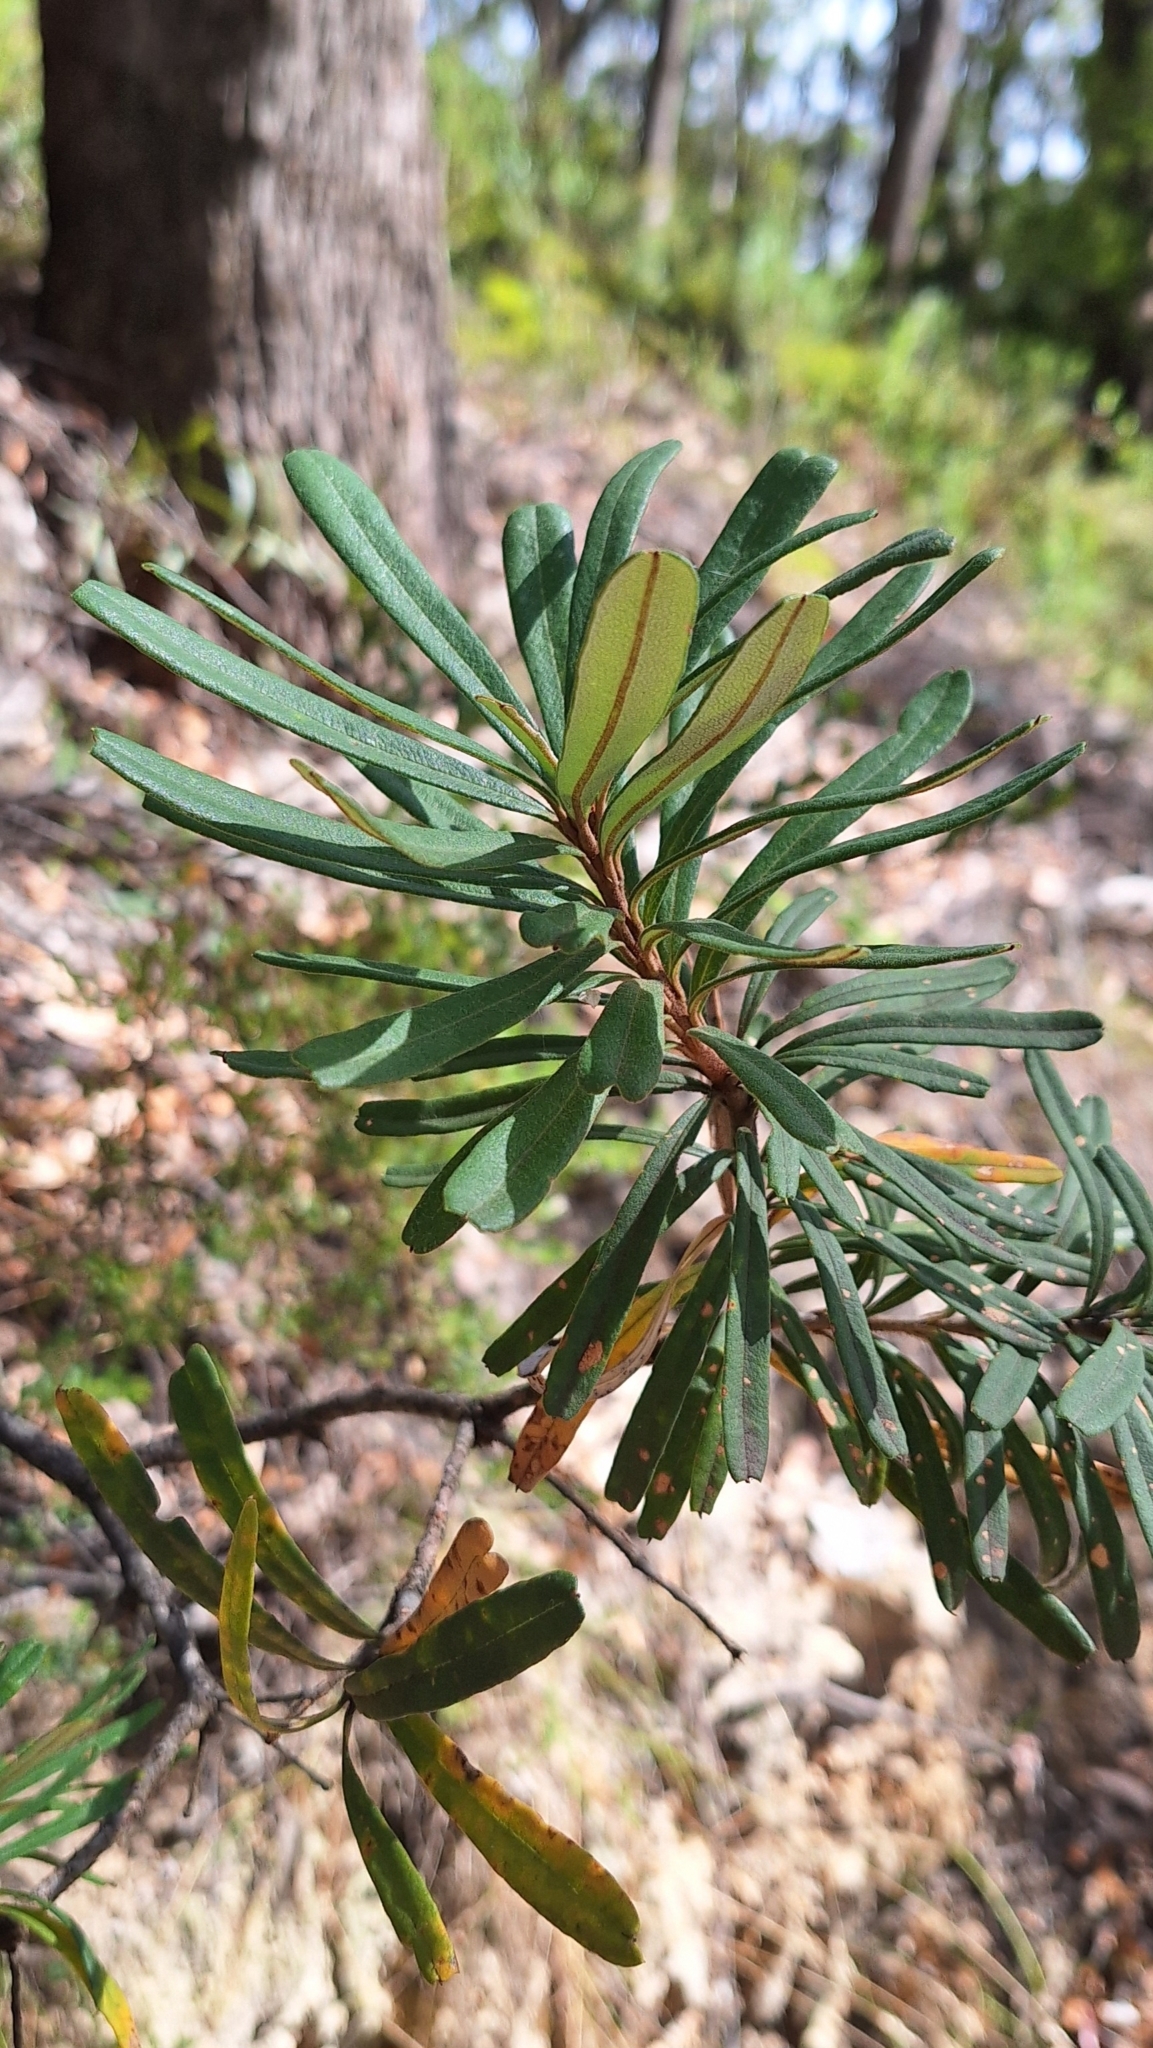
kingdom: Plantae
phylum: Tracheophyta
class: Magnoliopsida
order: Proteales
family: Proteaceae
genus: Banksia
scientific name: Banksia marginata
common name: Silver banksia
